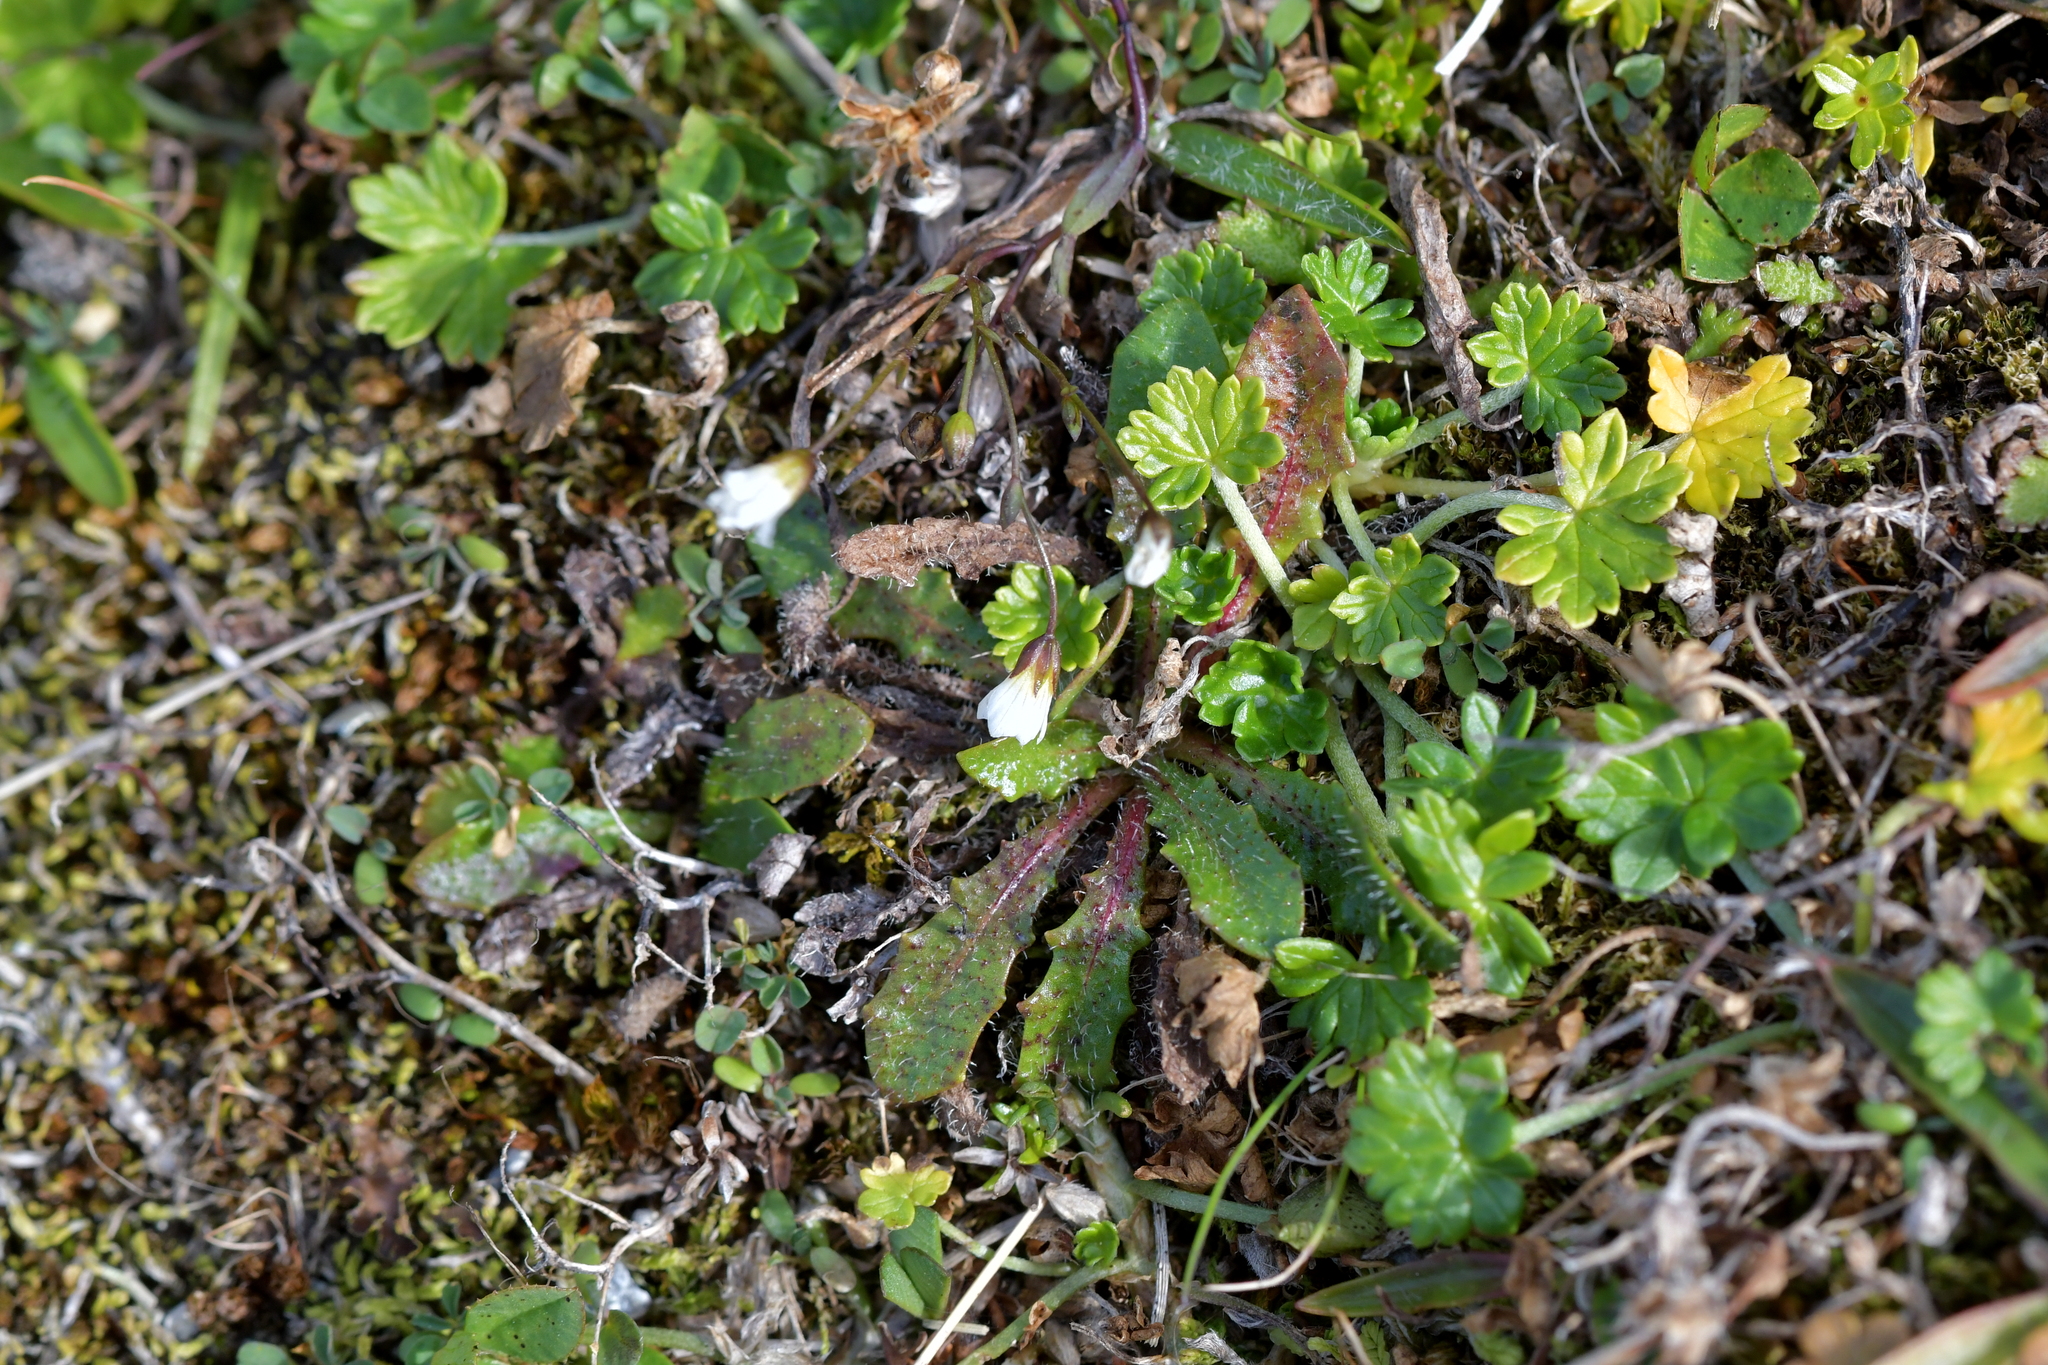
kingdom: Plantae
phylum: Tracheophyta
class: Magnoliopsida
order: Geraniales
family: Geraniaceae
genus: Geranium
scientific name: Geranium brevicaule
